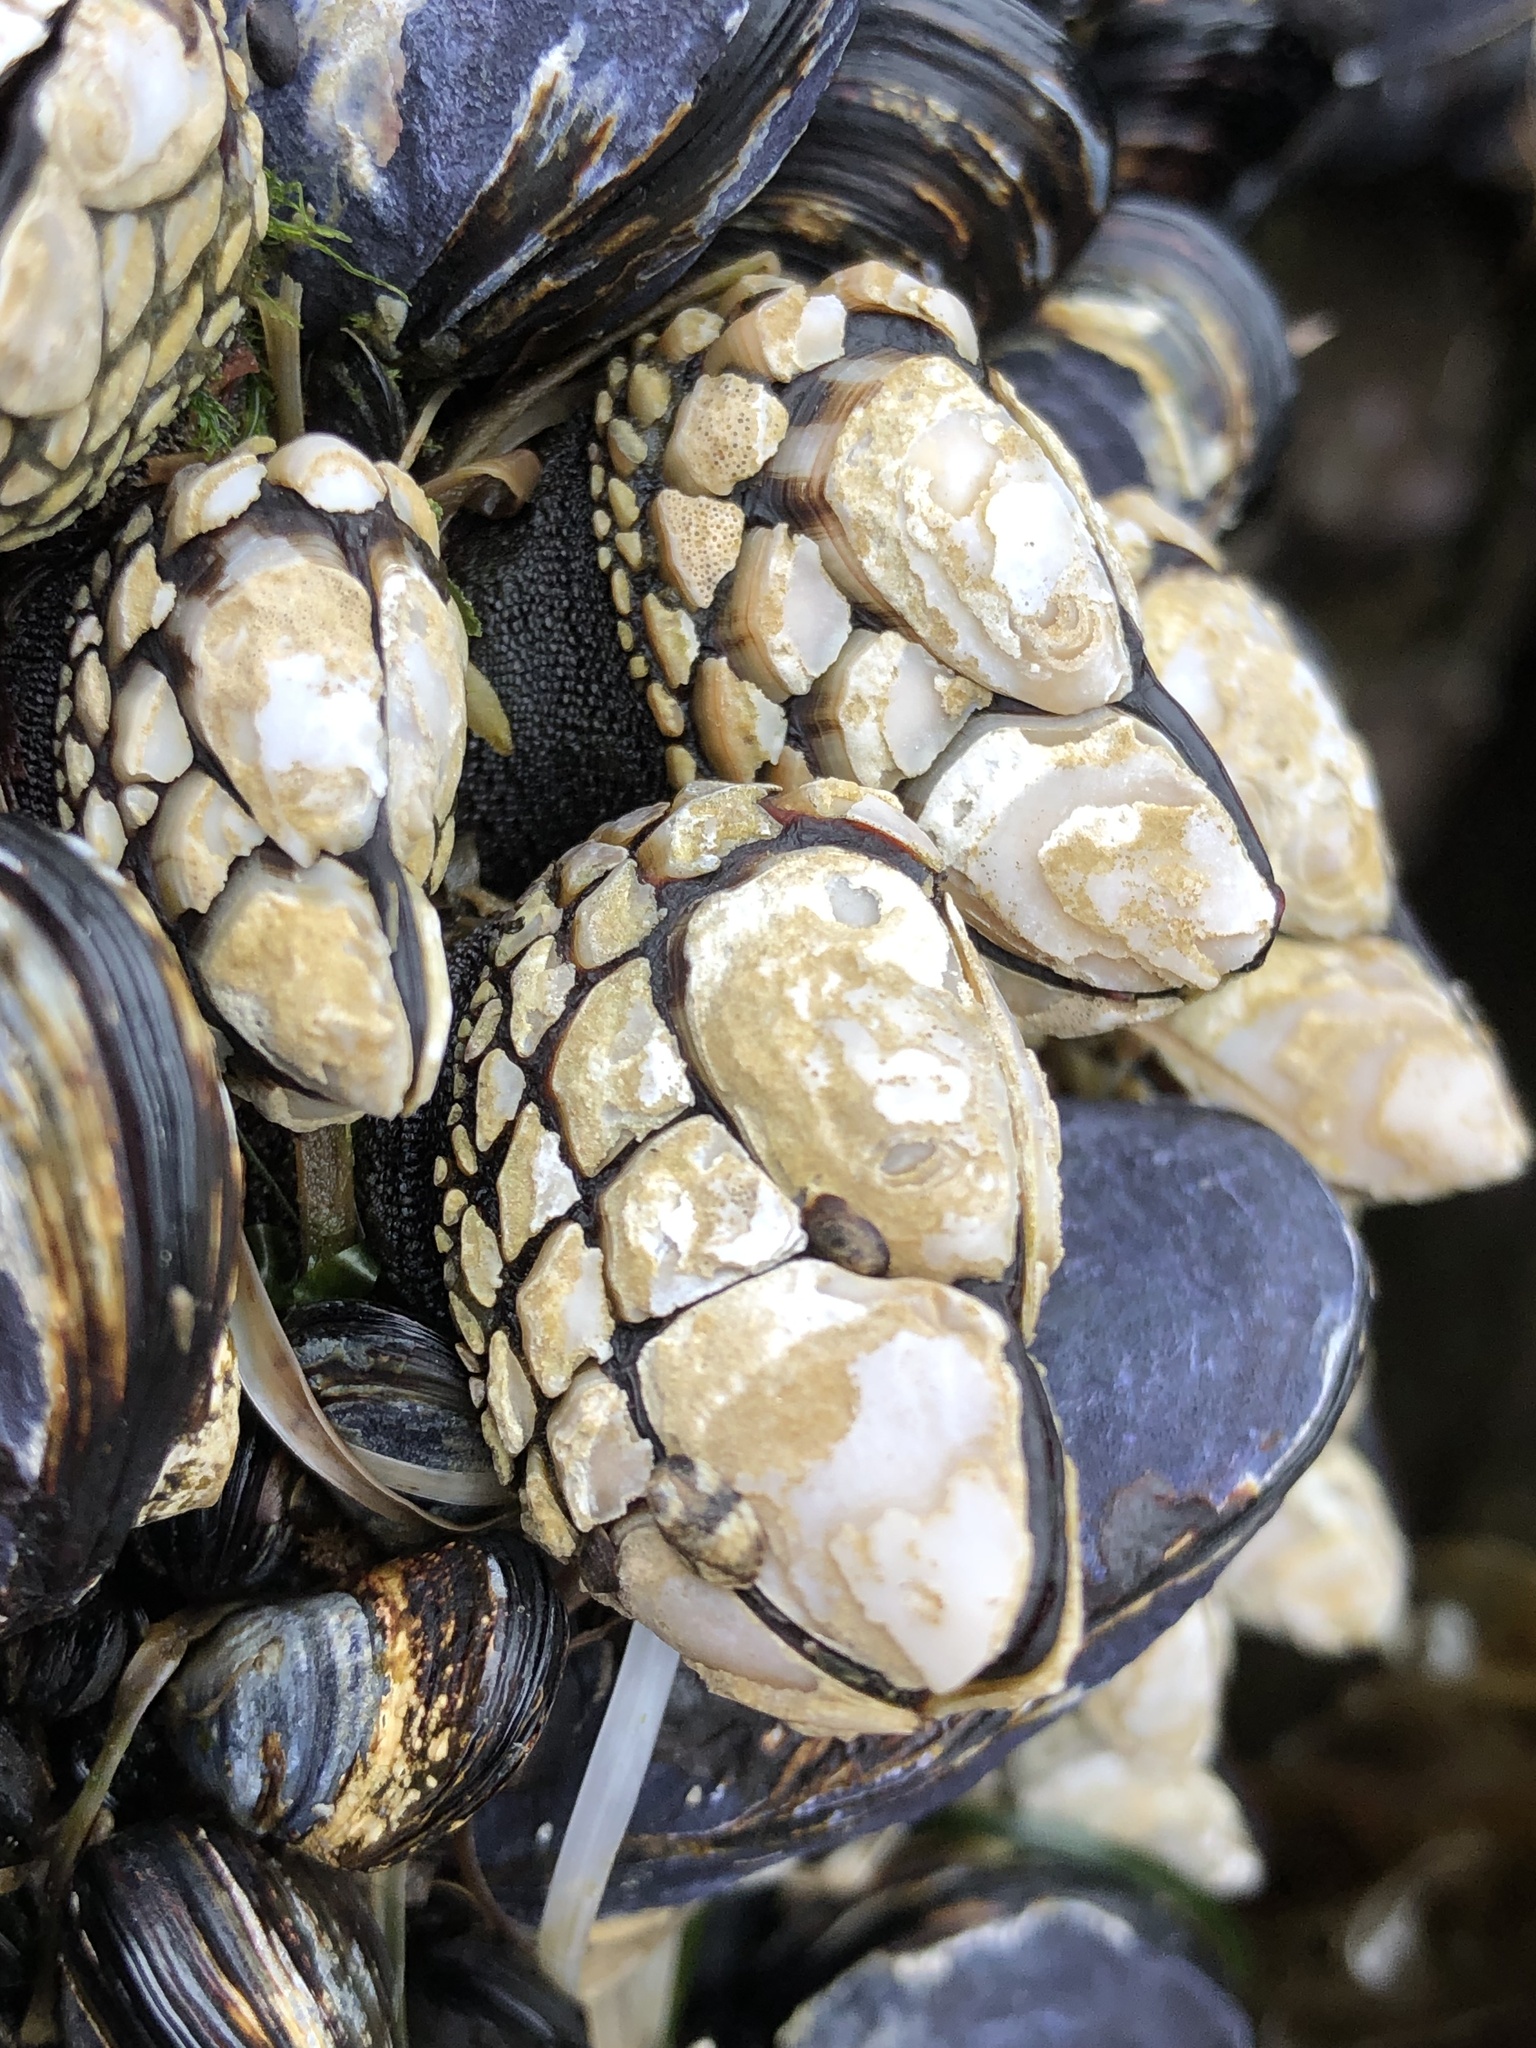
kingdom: Animalia
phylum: Arthropoda
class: Maxillopoda
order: Pedunculata
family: Pollicipedidae
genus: Pollicipes
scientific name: Pollicipes polymerus
